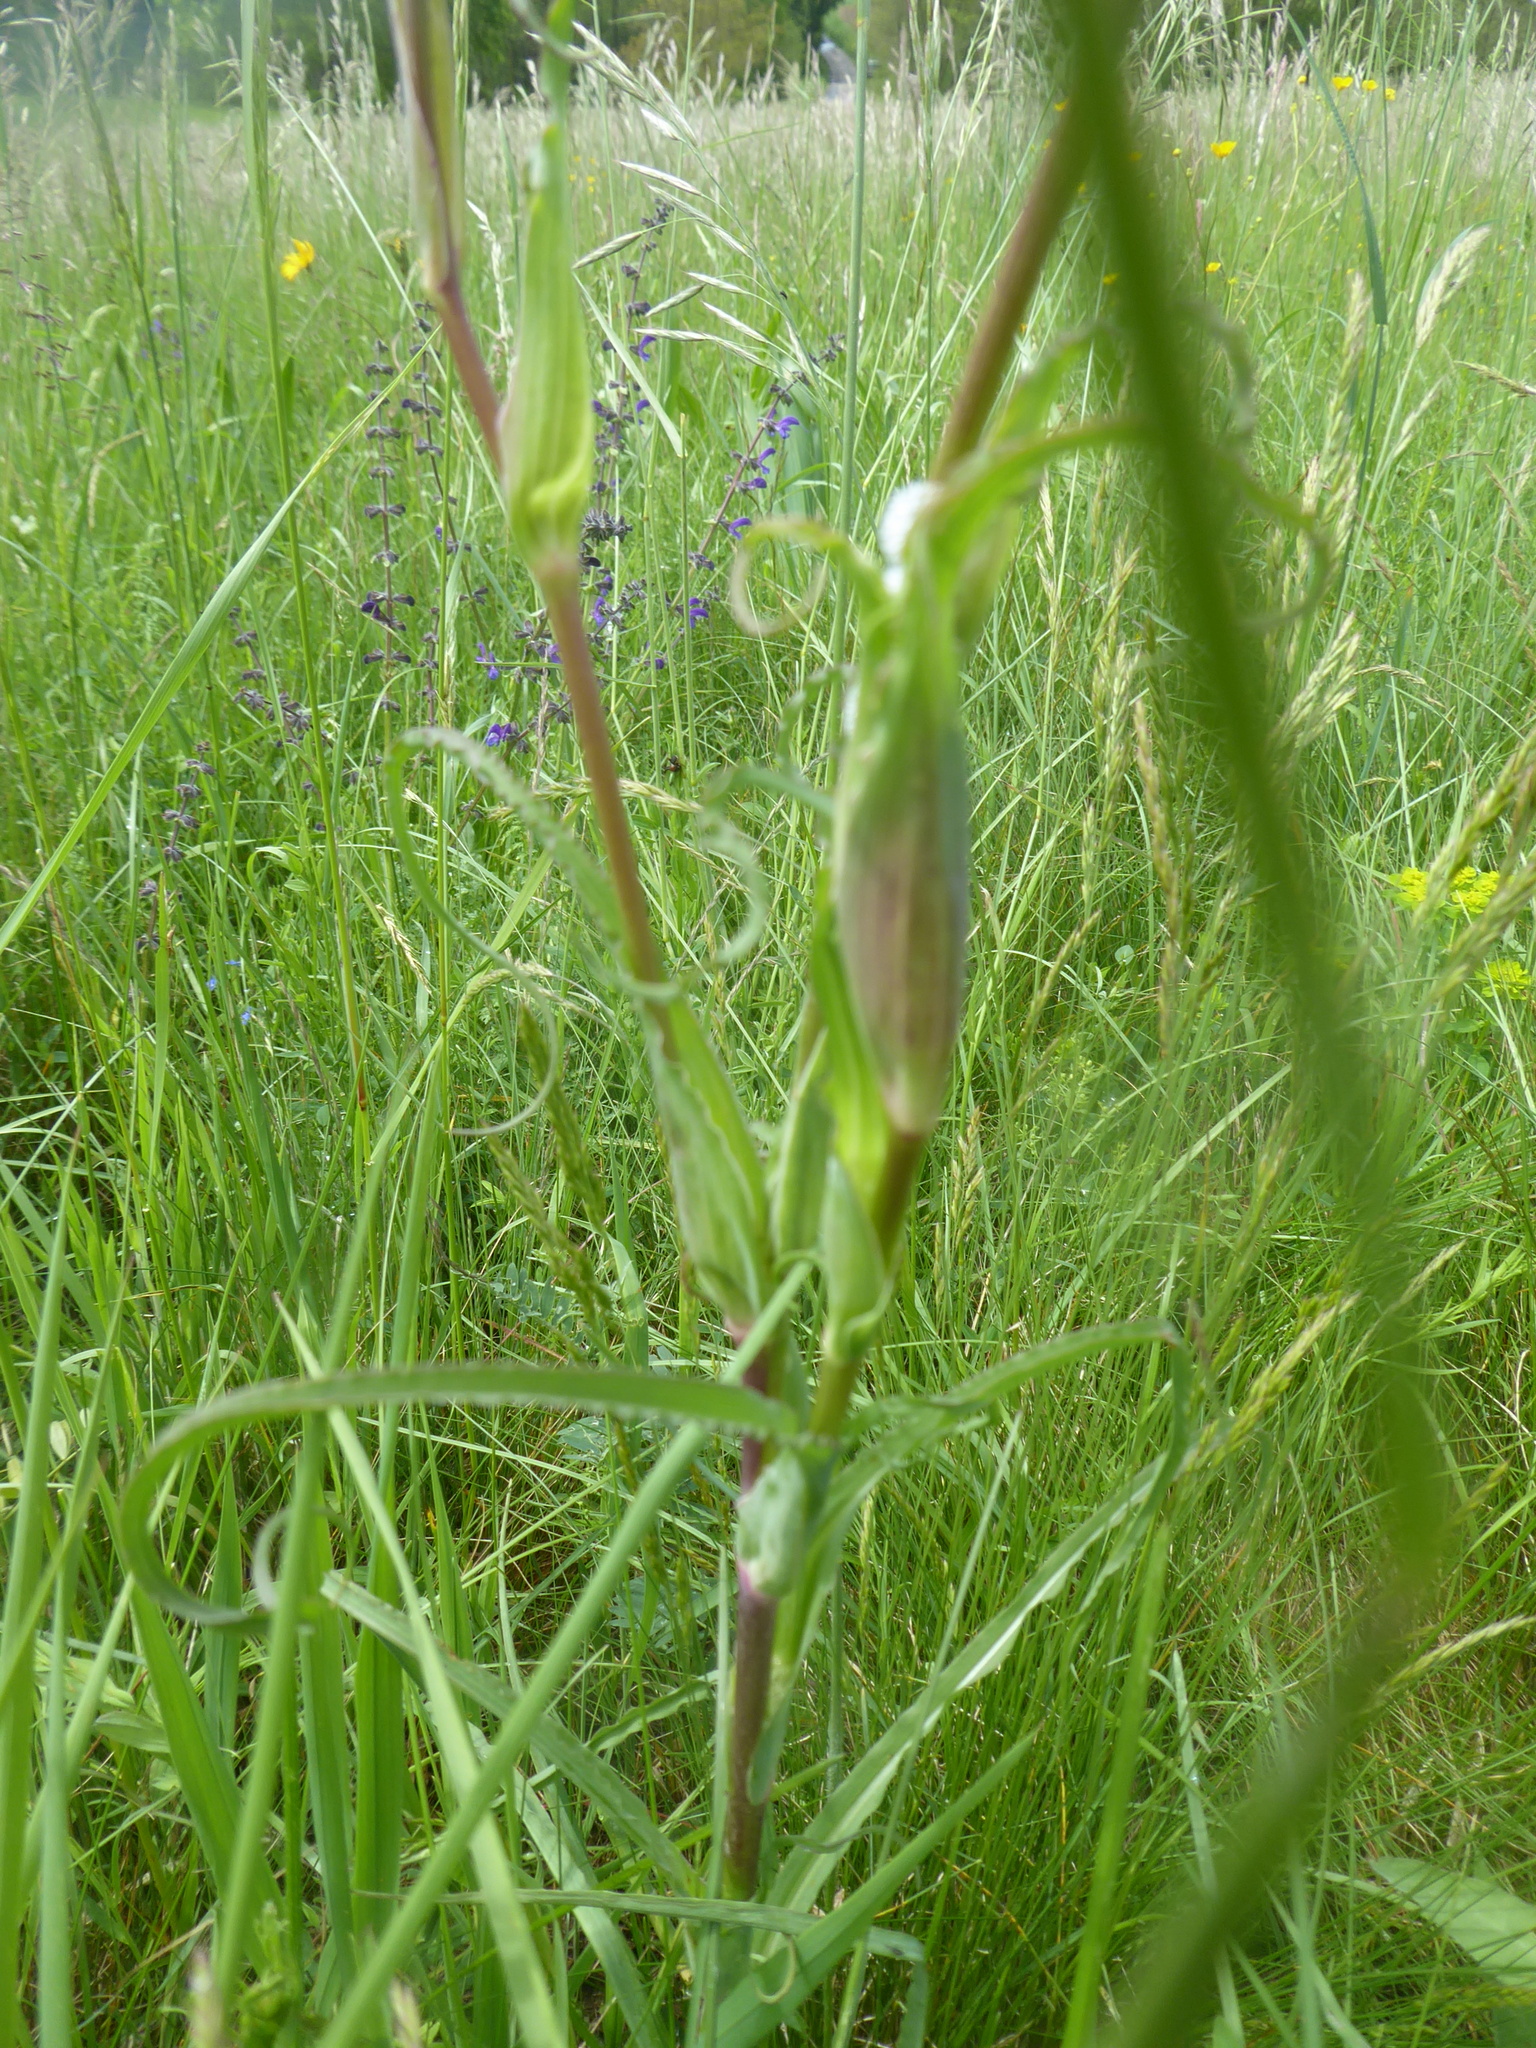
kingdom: Plantae
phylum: Tracheophyta
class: Magnoliopsida
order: Asterales
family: Asteraceae
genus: Tragopogon
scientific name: Tragopogon orientalis
